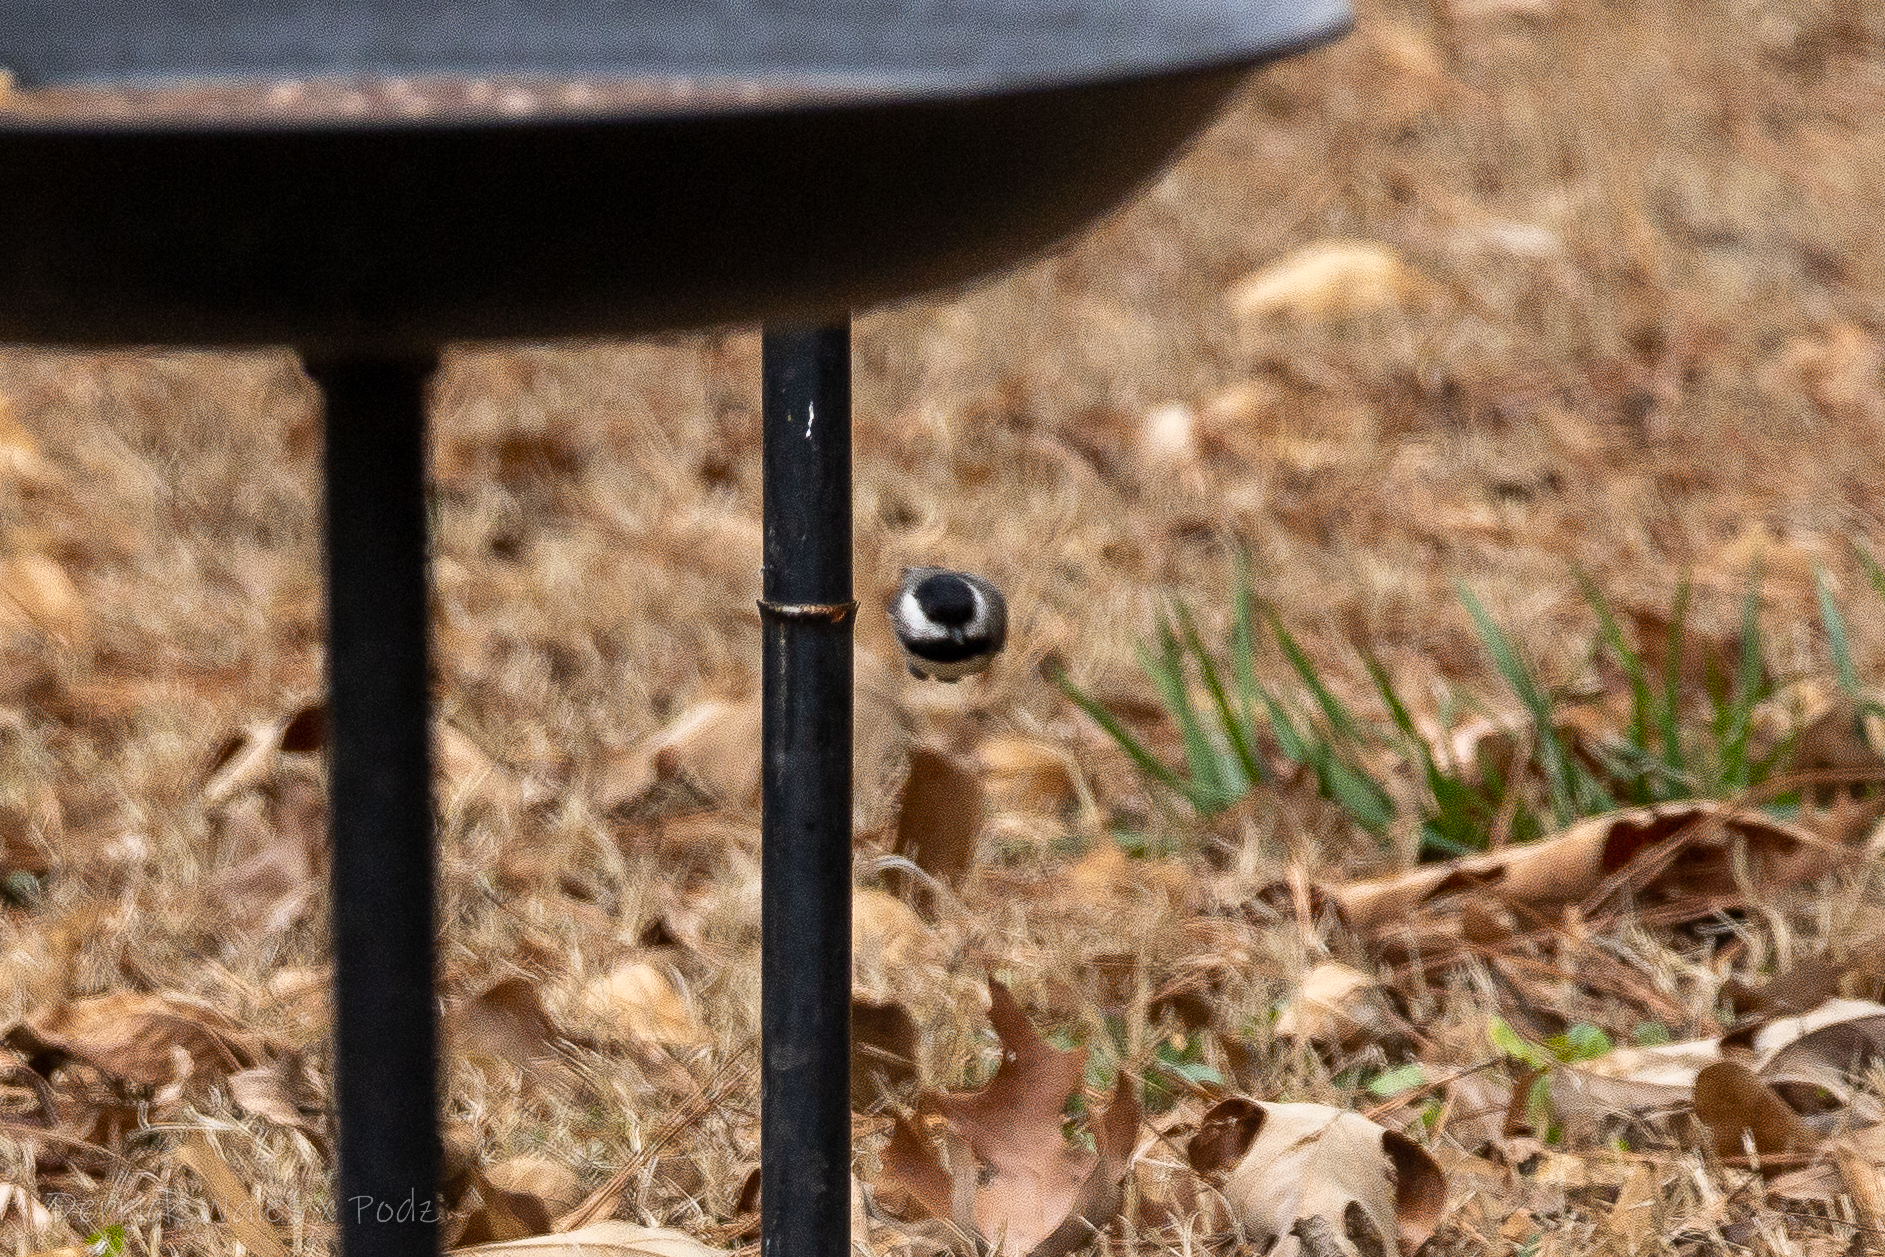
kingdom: Animalia
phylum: Chordata
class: Aves
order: Passeriformes
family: Paridae
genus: Poecile
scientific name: Poecile carolinensis
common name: Carolina chickadee
